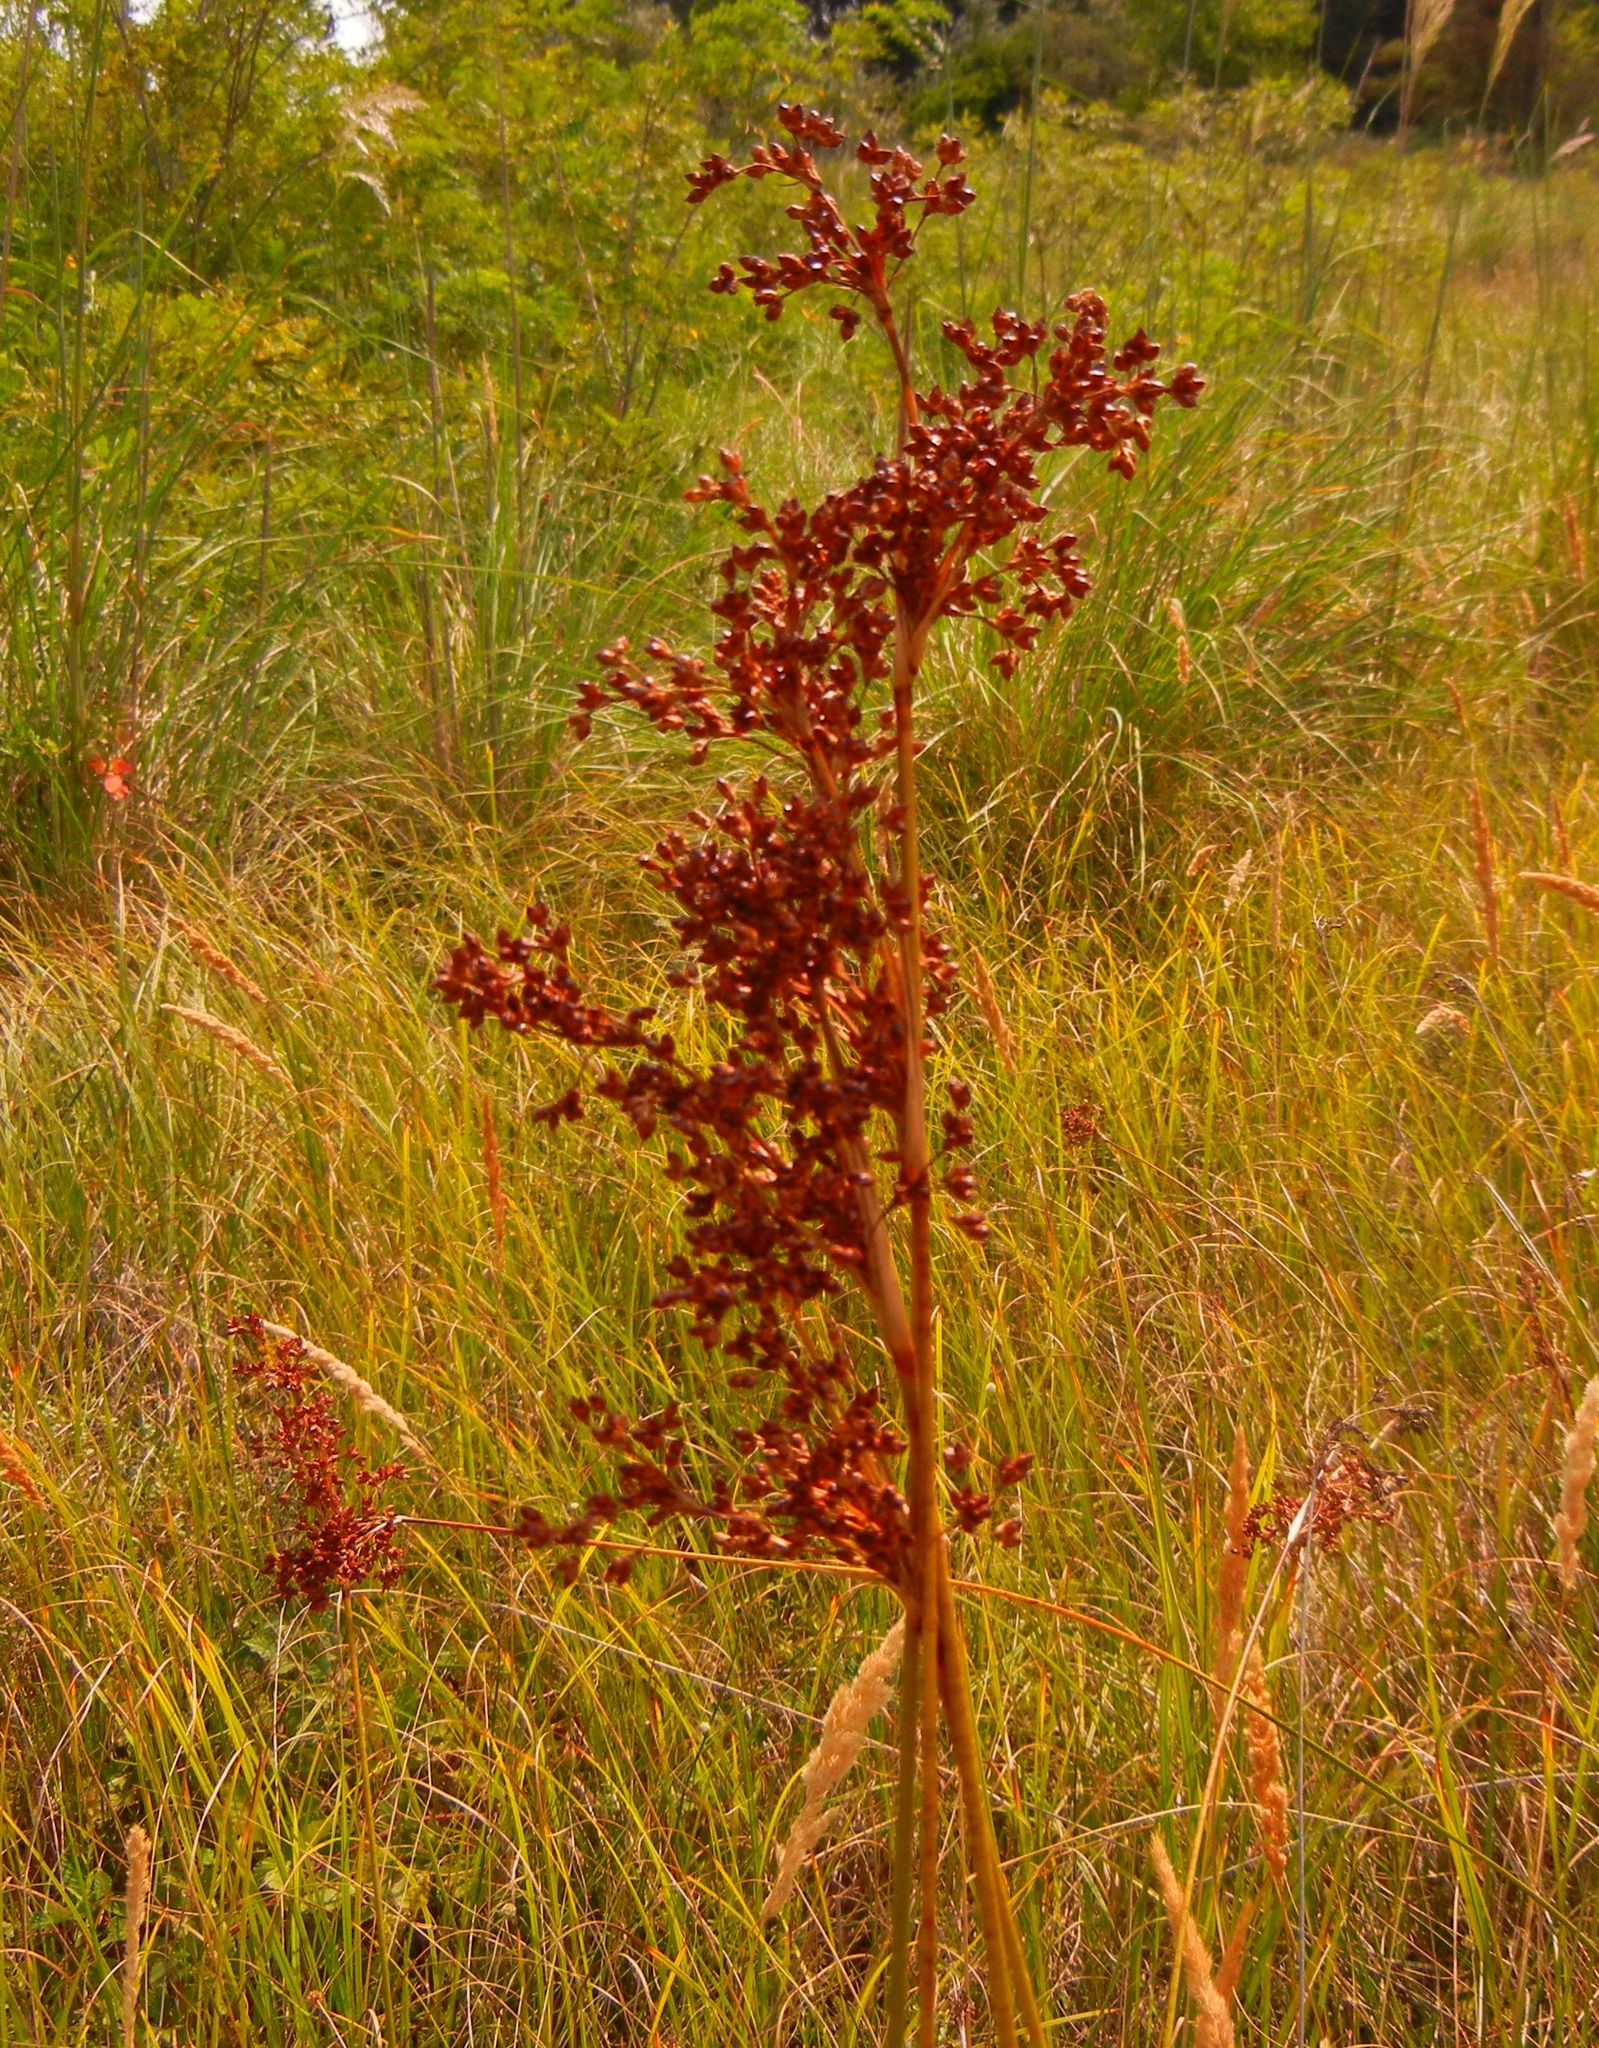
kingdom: Plantae
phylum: Tracheophyta
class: Liliopsida
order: Poales
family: Juncaceae
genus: Juncus
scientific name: Juncus maritimus
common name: Sea rush
